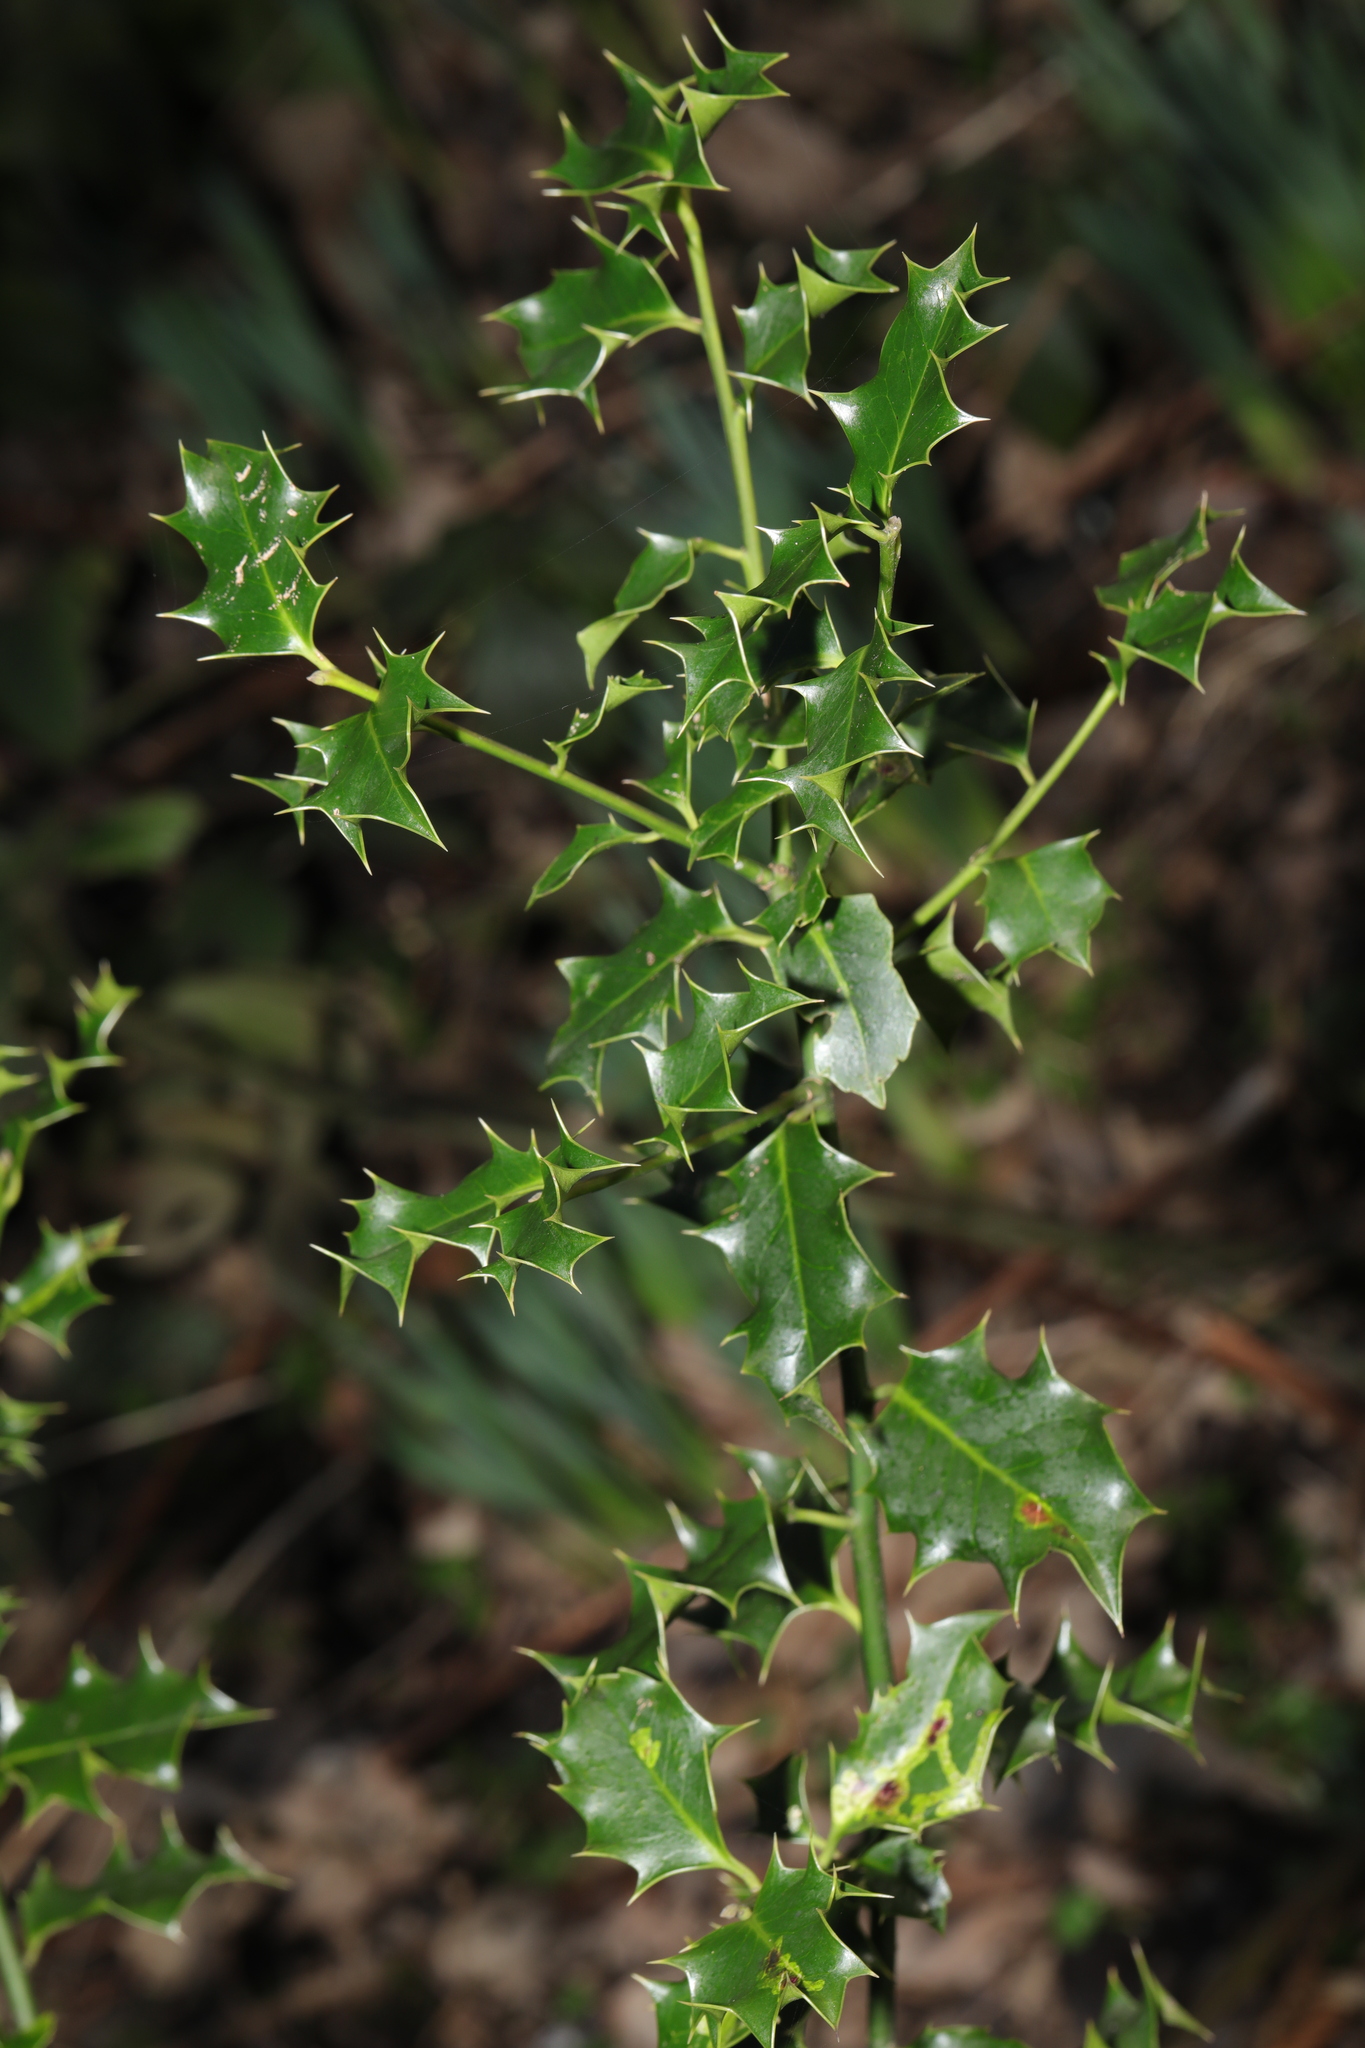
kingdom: Plantae
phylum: Tracheophyta
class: Magnoliopsida
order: Aquifoliales
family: Aquifoliaceae
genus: Ilex
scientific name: Ilex aquifolium
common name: English holly
